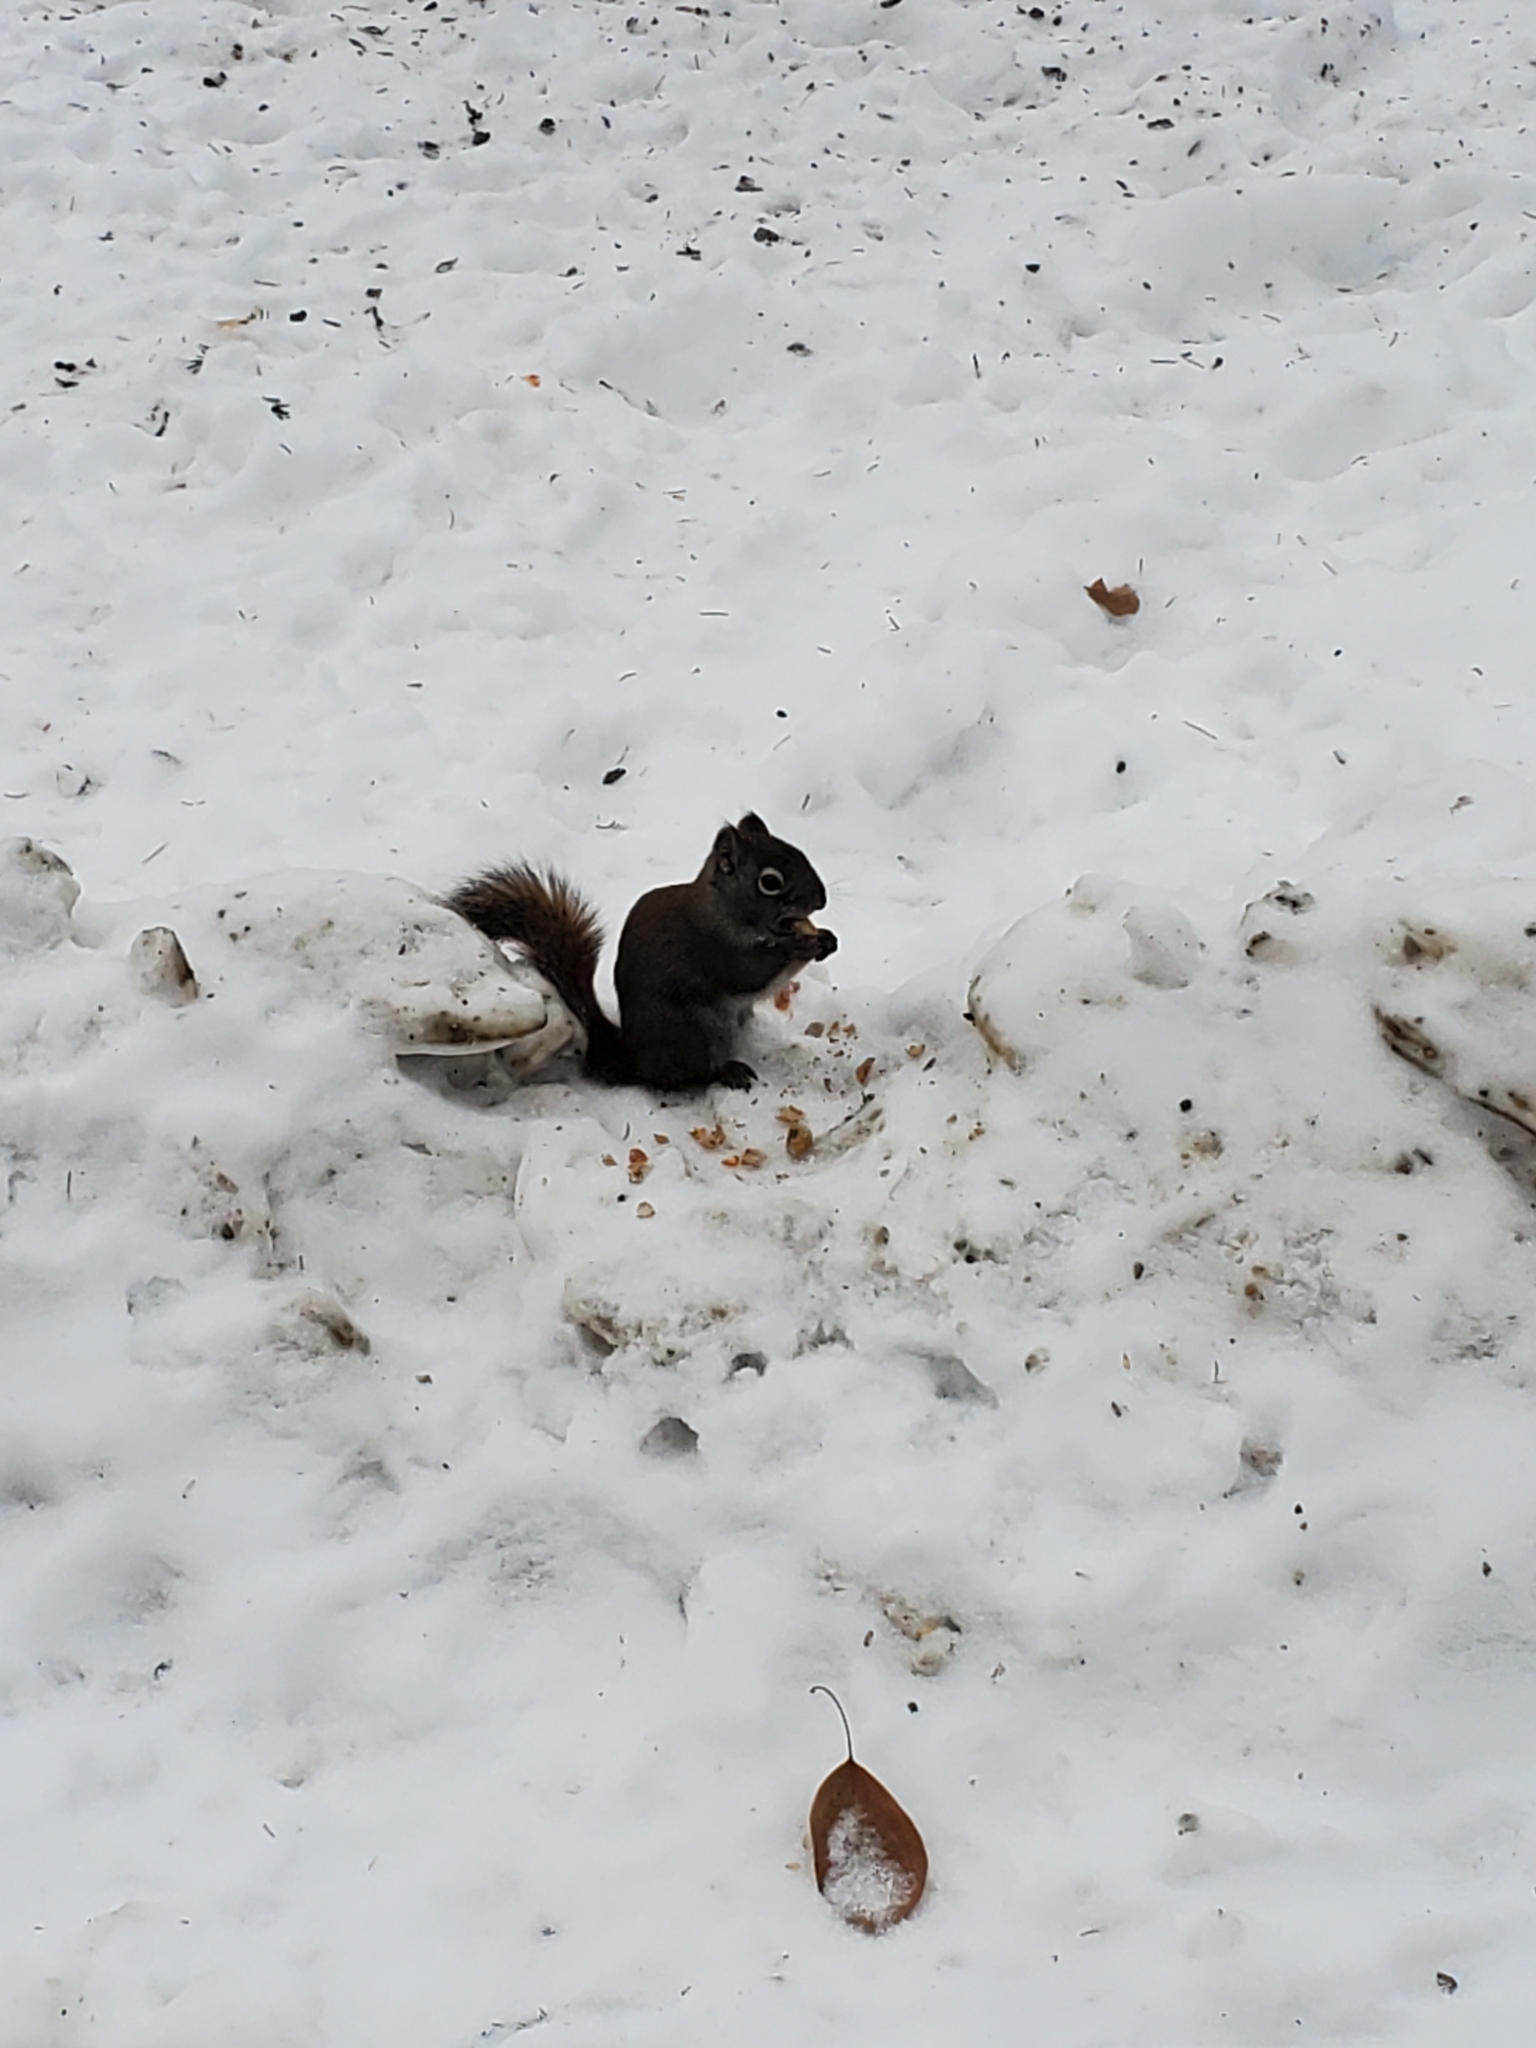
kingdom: Animalia
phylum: Chordata
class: Mammalia
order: Rodentia
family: Sciuridae
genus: Tamiasciurus
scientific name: Tamiasciurus hudsonicus
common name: Red squirrel
